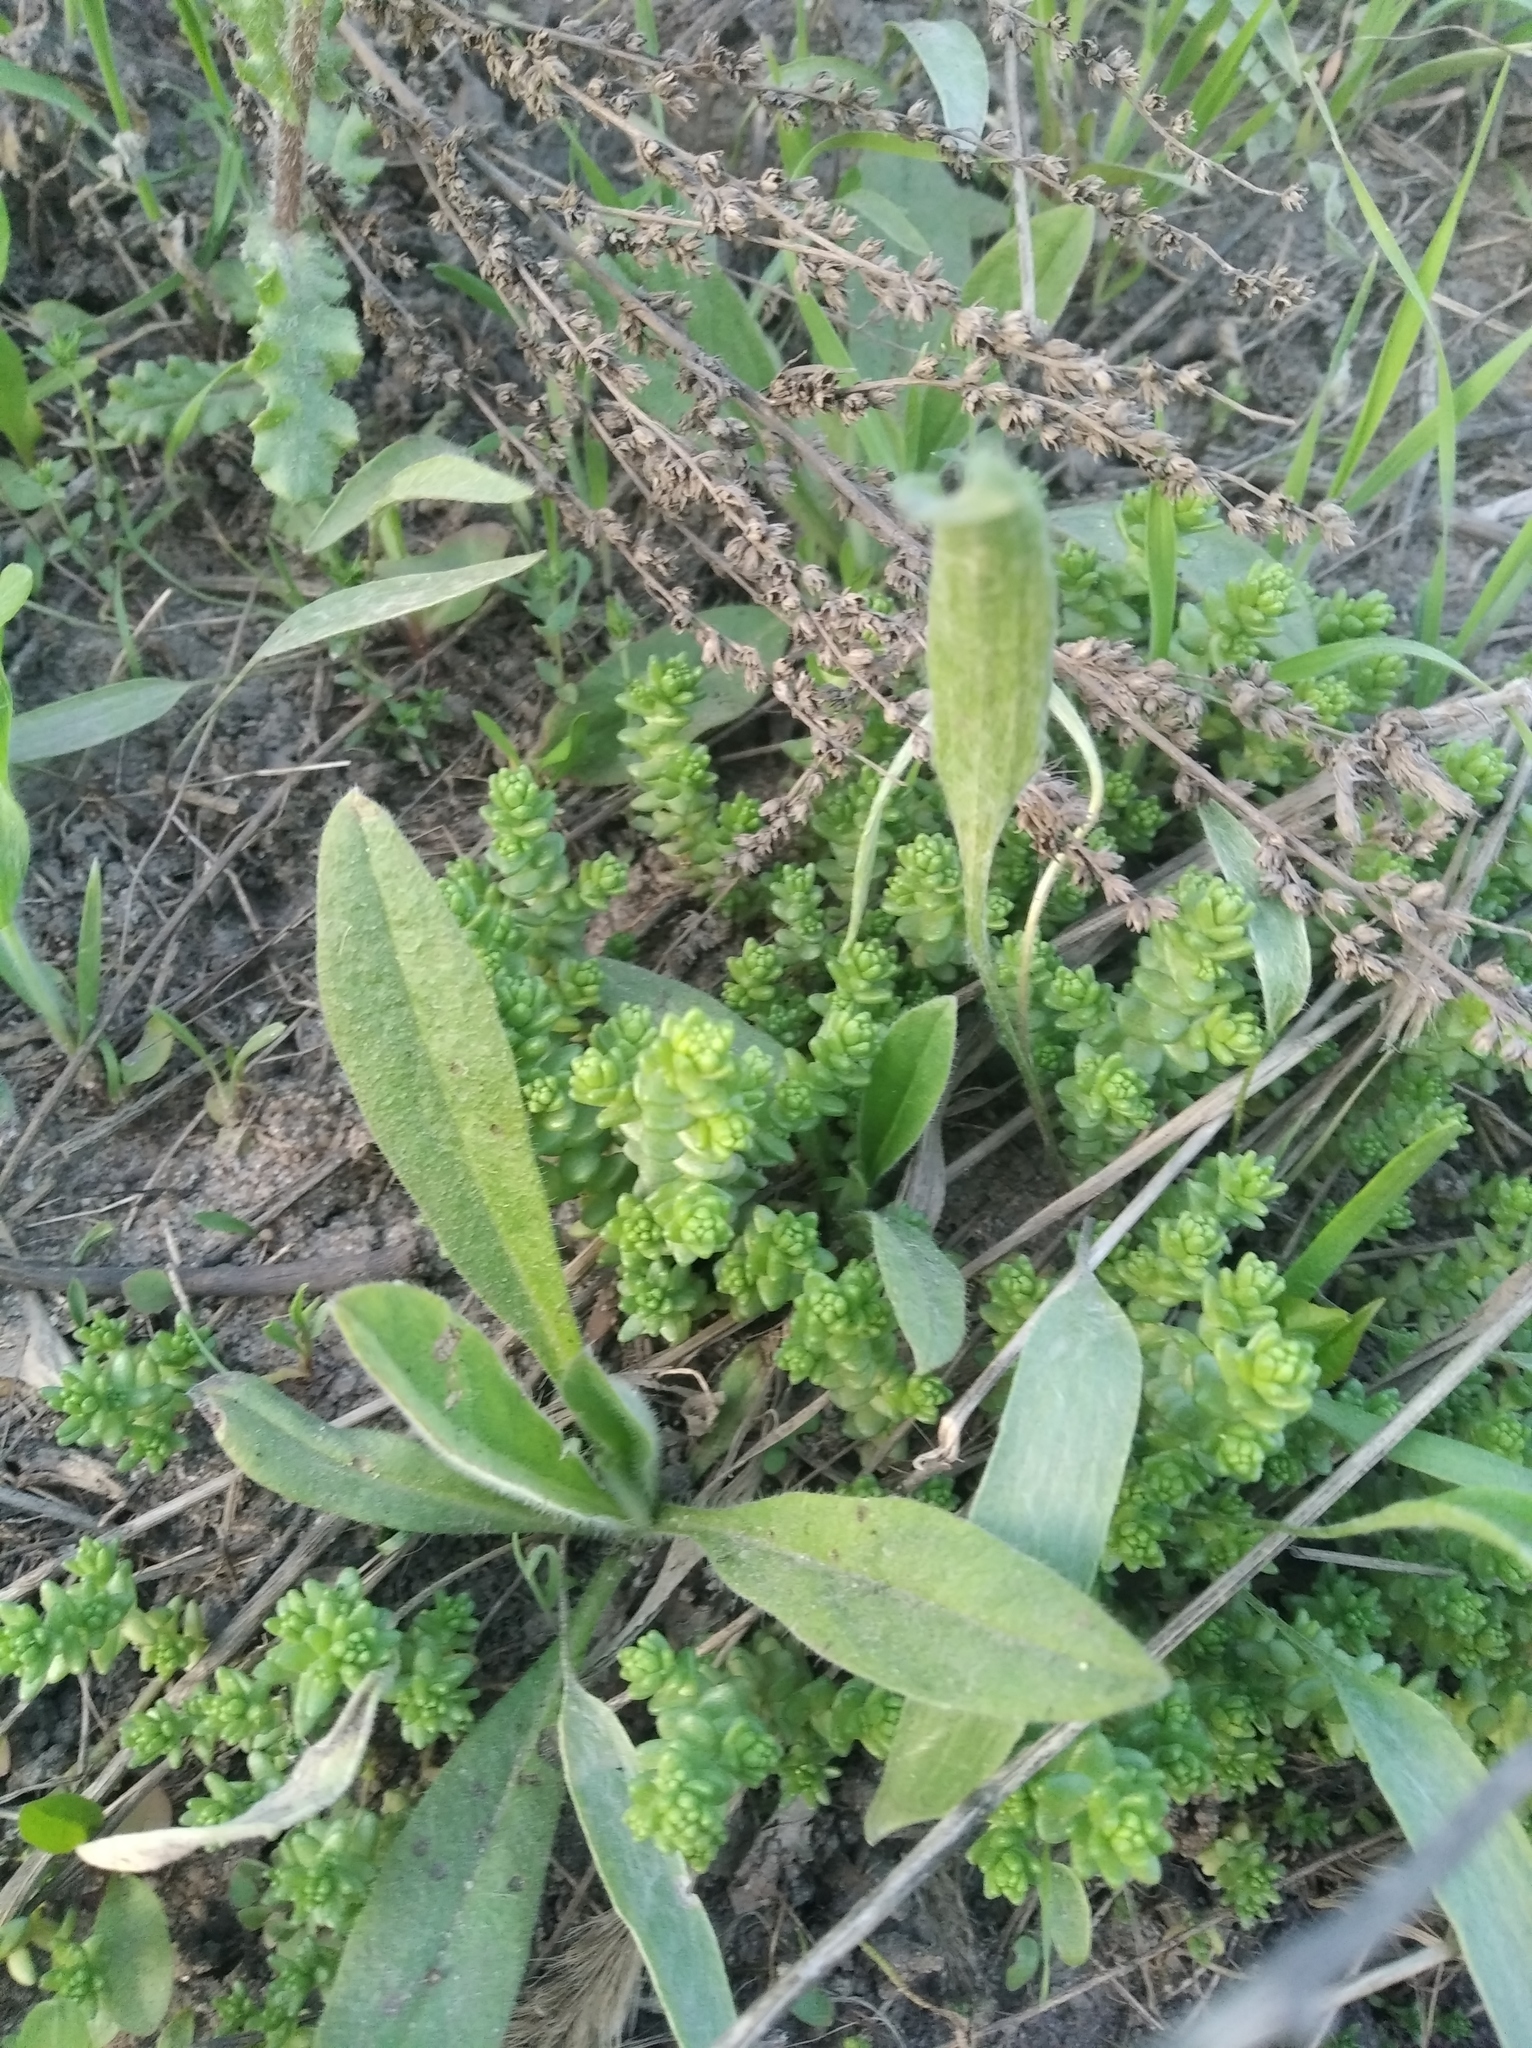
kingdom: Plantae
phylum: Tracheophyta
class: Magnoliopsida
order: Saxifragales
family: Crassulaceae
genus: Sedum
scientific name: Sedum acre
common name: Biting stonecrop
